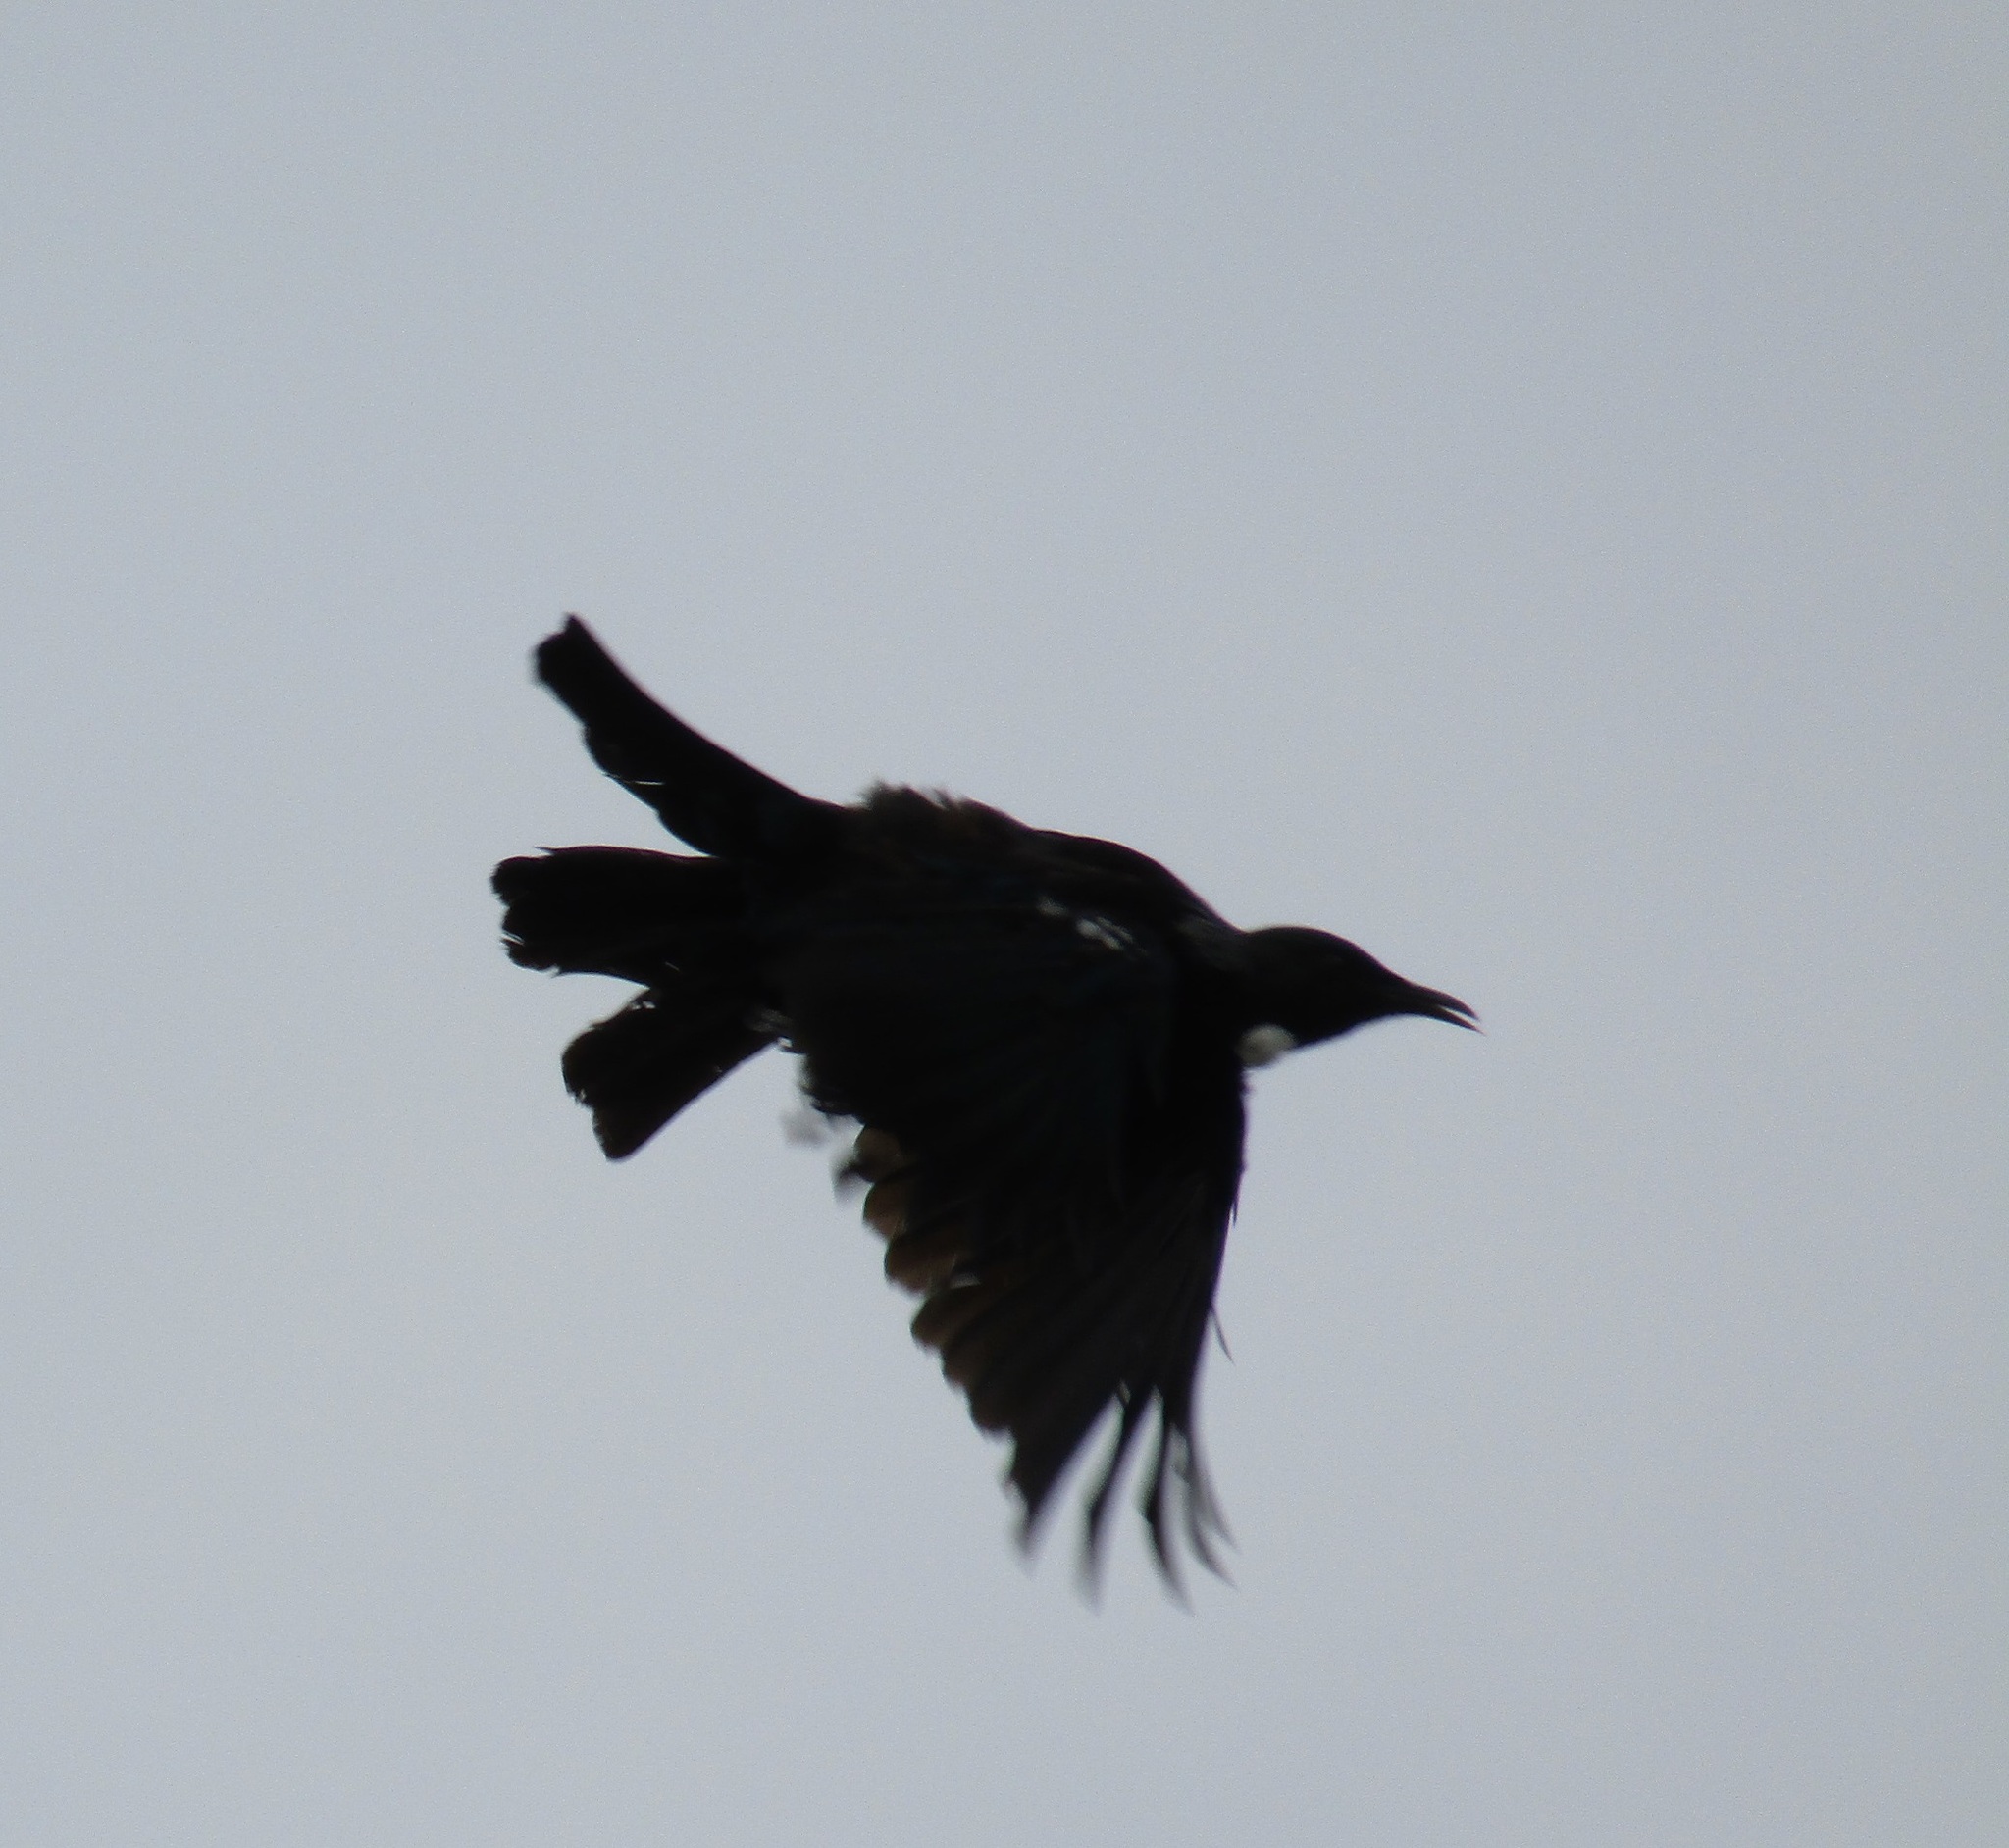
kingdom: Animalia
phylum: Chordata
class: Aves
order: Passeriformes
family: Meliphagidae
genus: Prosthemadera
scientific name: Prosthemadera novaeseelandiae
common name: Tui
